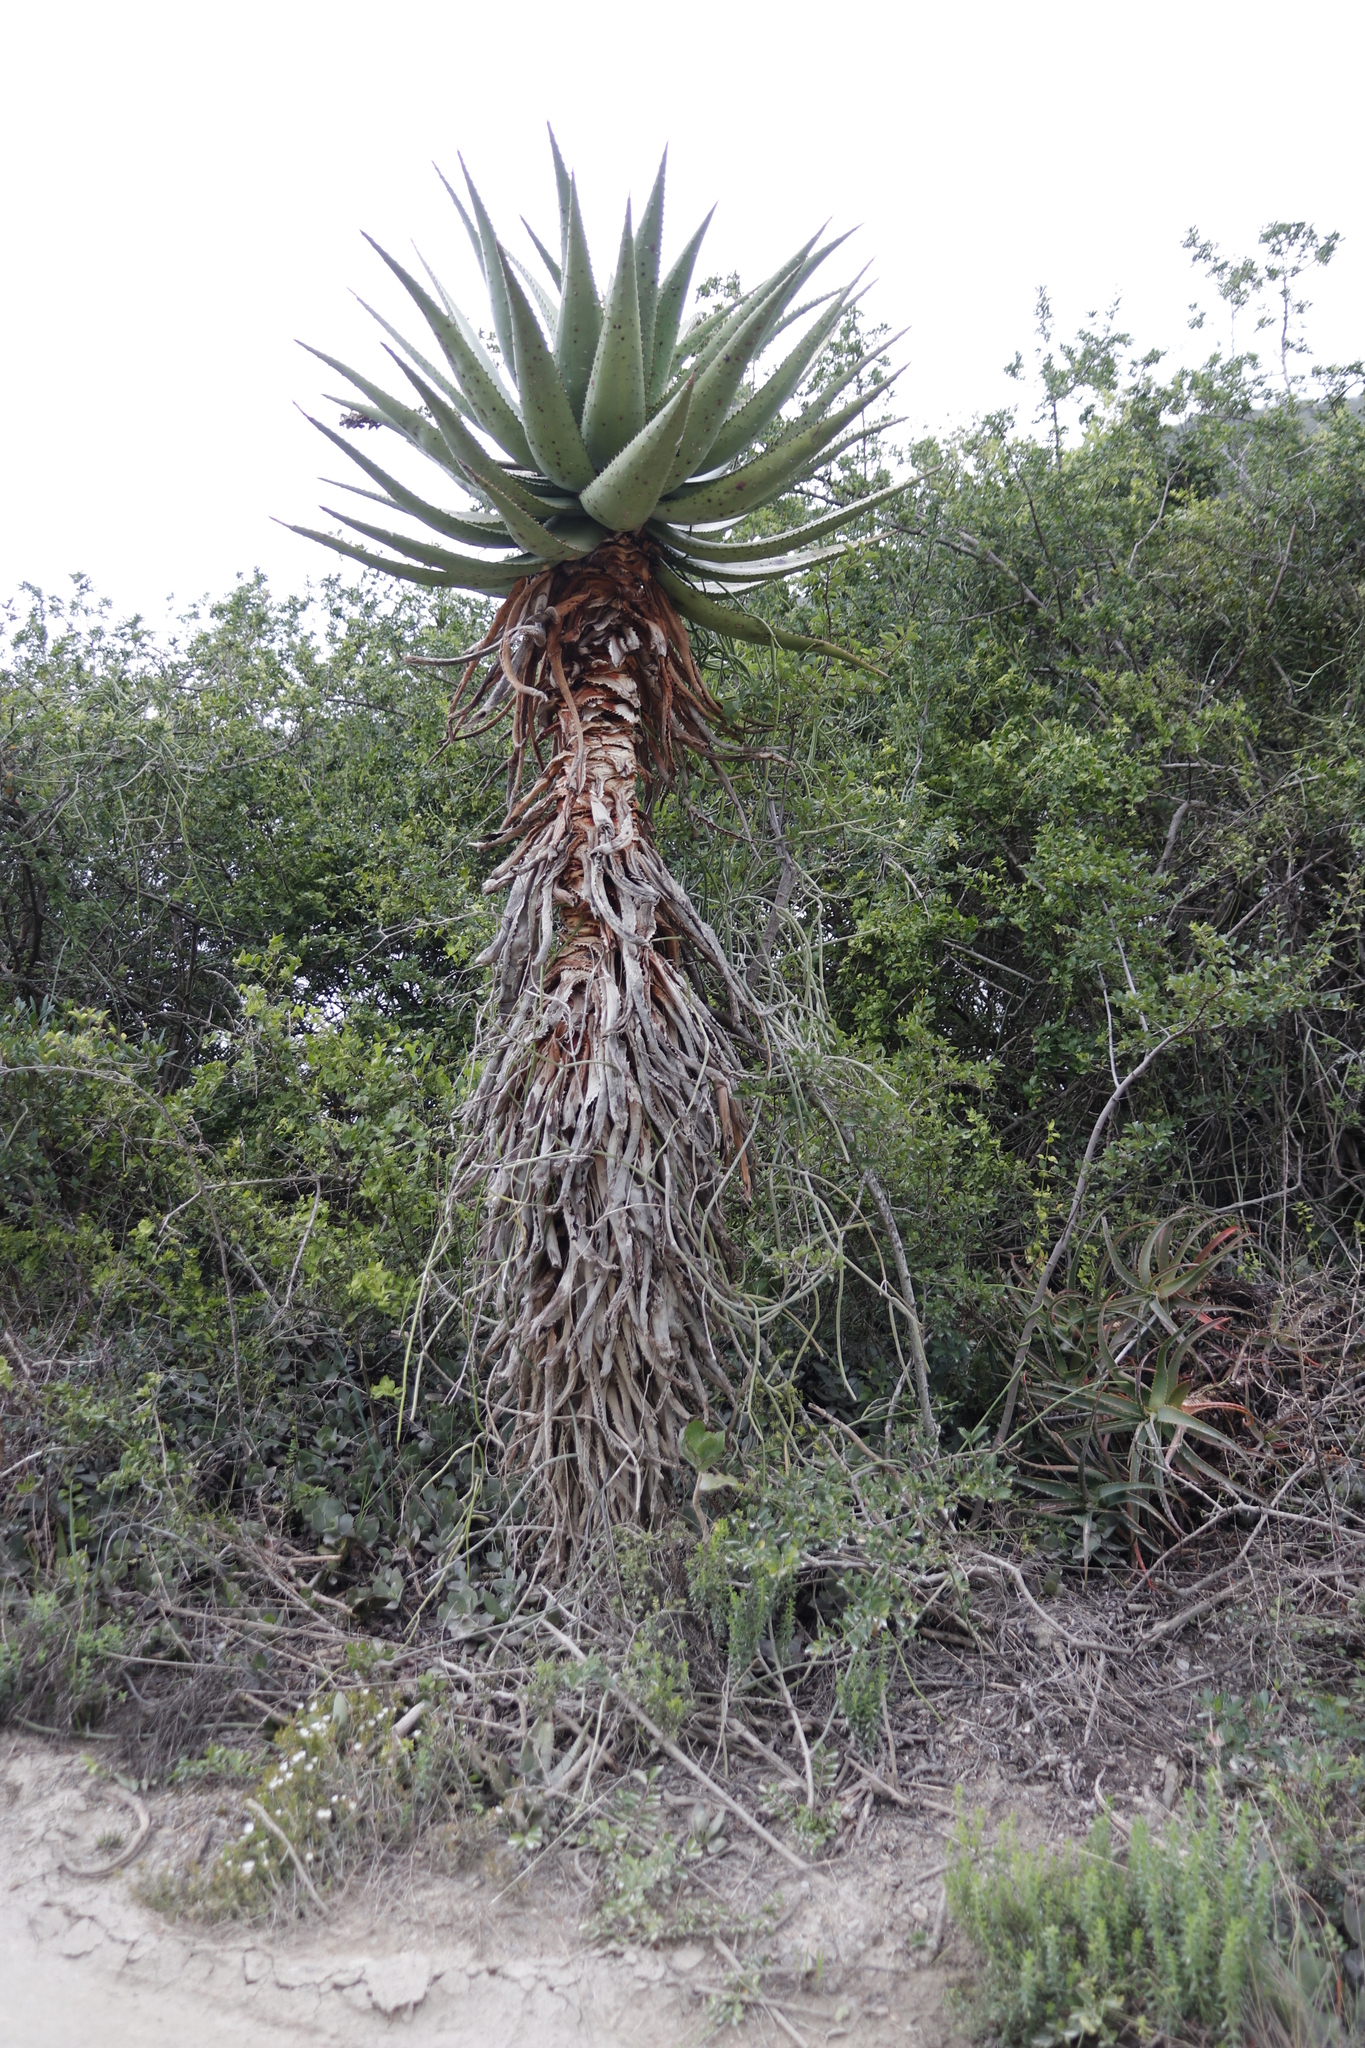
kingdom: Plantae
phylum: Tracheophyta
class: Liliopsida
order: Asparagales
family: Asphodelaceae
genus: Aloe
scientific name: Aloe ferox
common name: Bitter aloe
